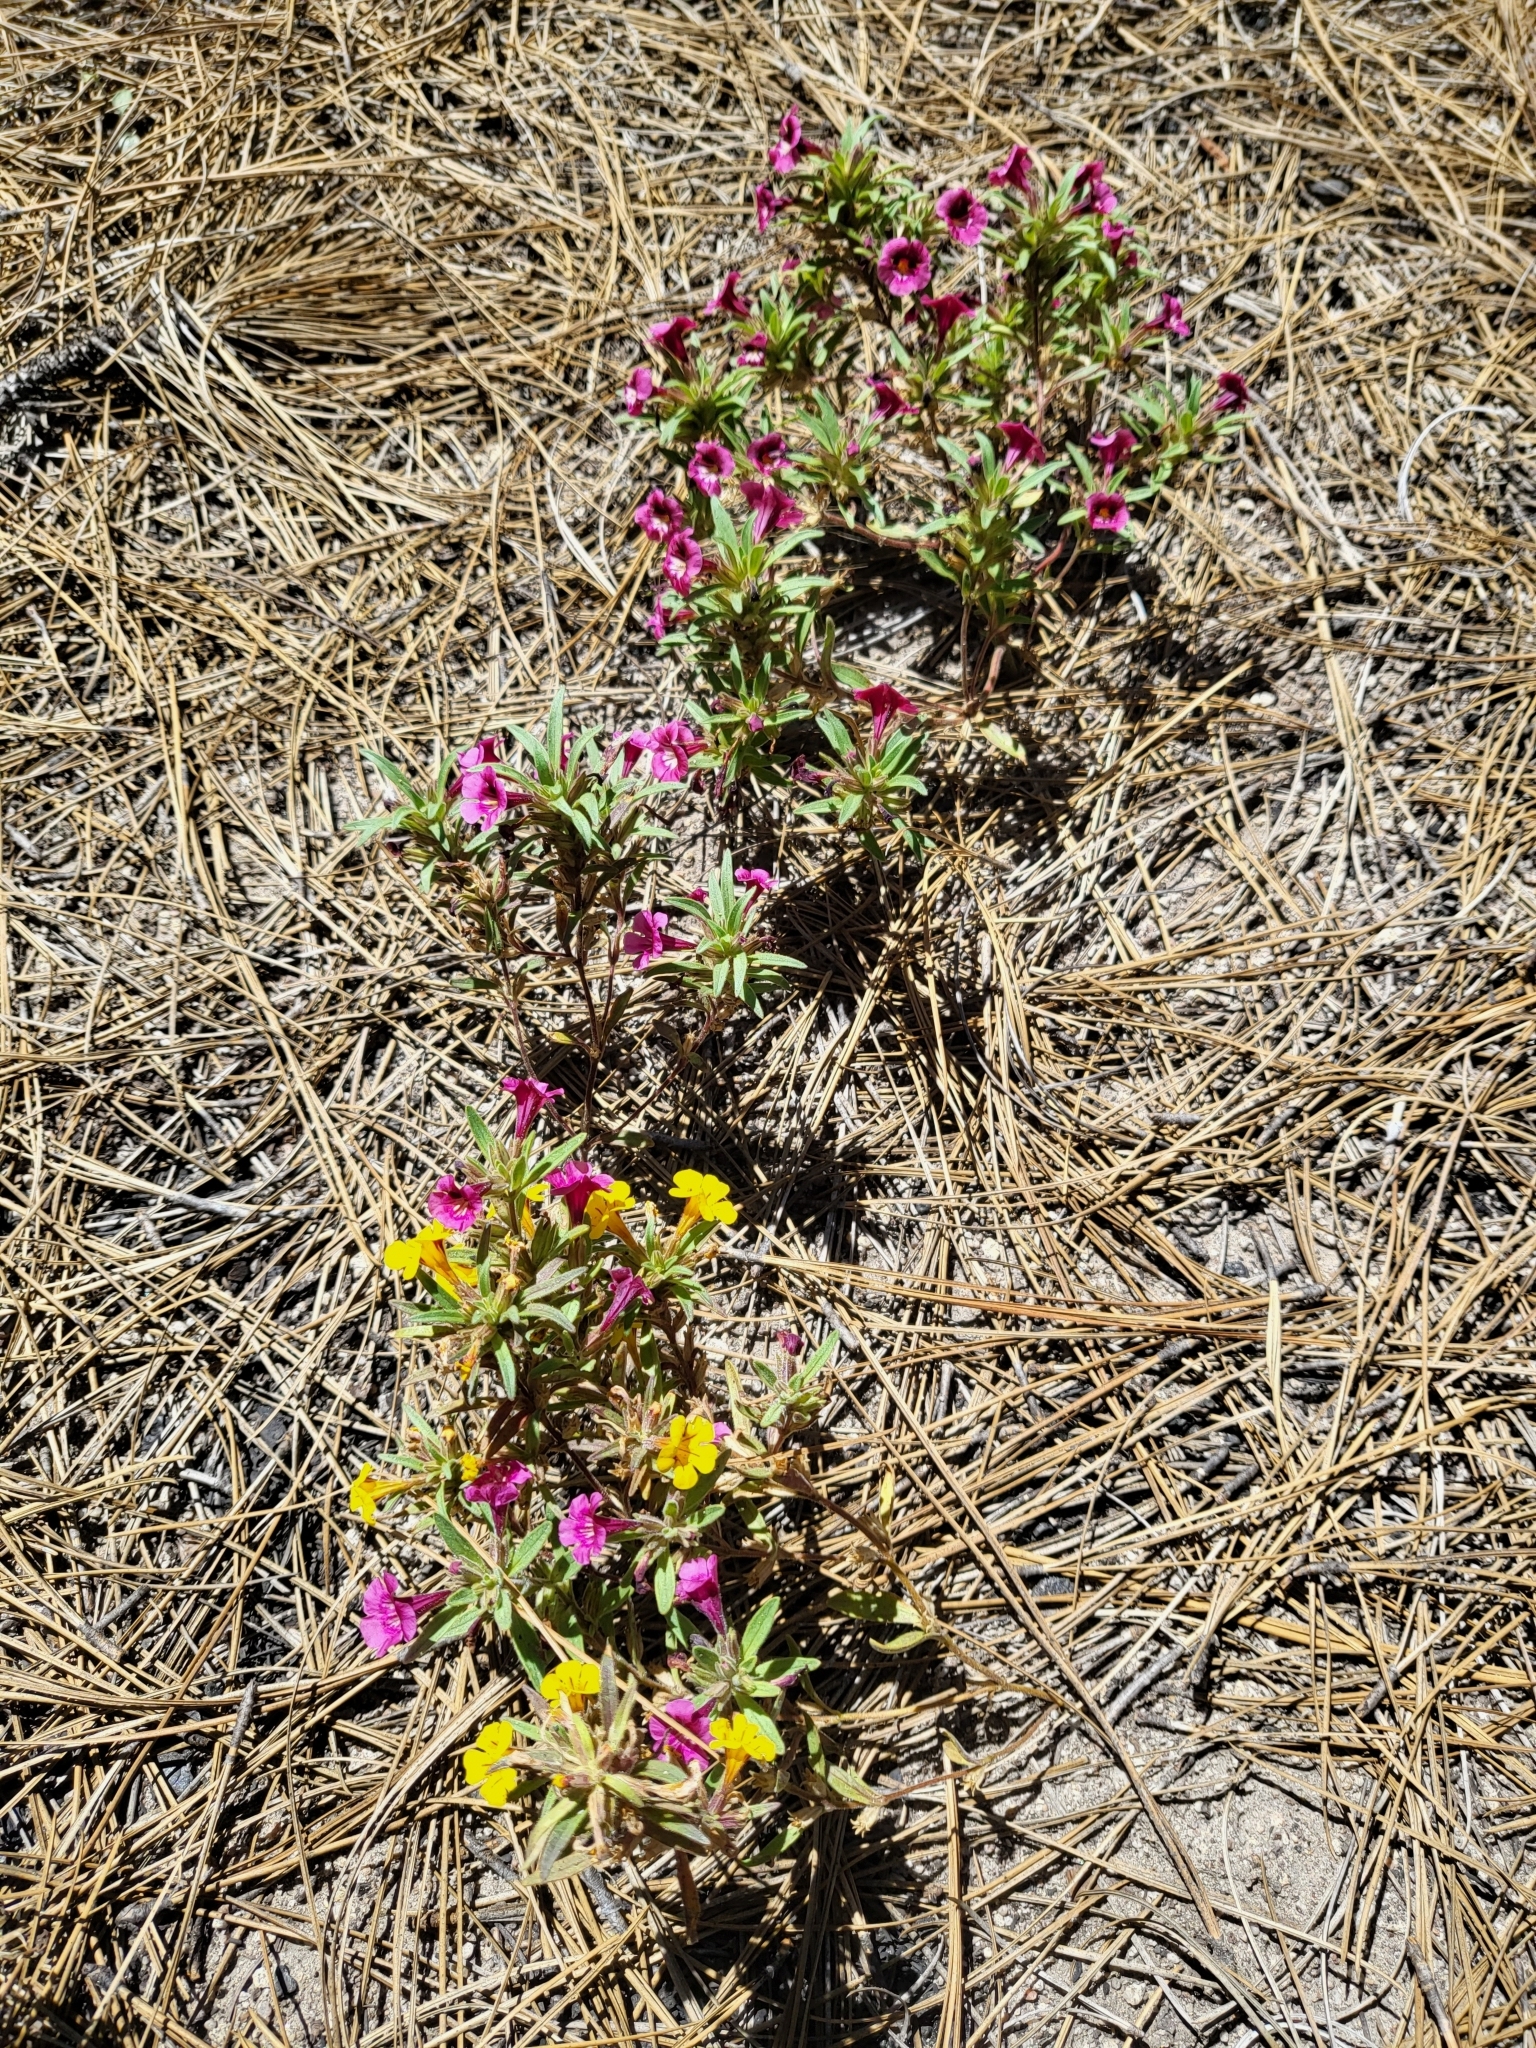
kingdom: Plantae
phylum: Tracheophyta
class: Magnoliopsida
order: Lamiales
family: Phrymaceae
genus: Diplacus
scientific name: Diplacus bicolor
